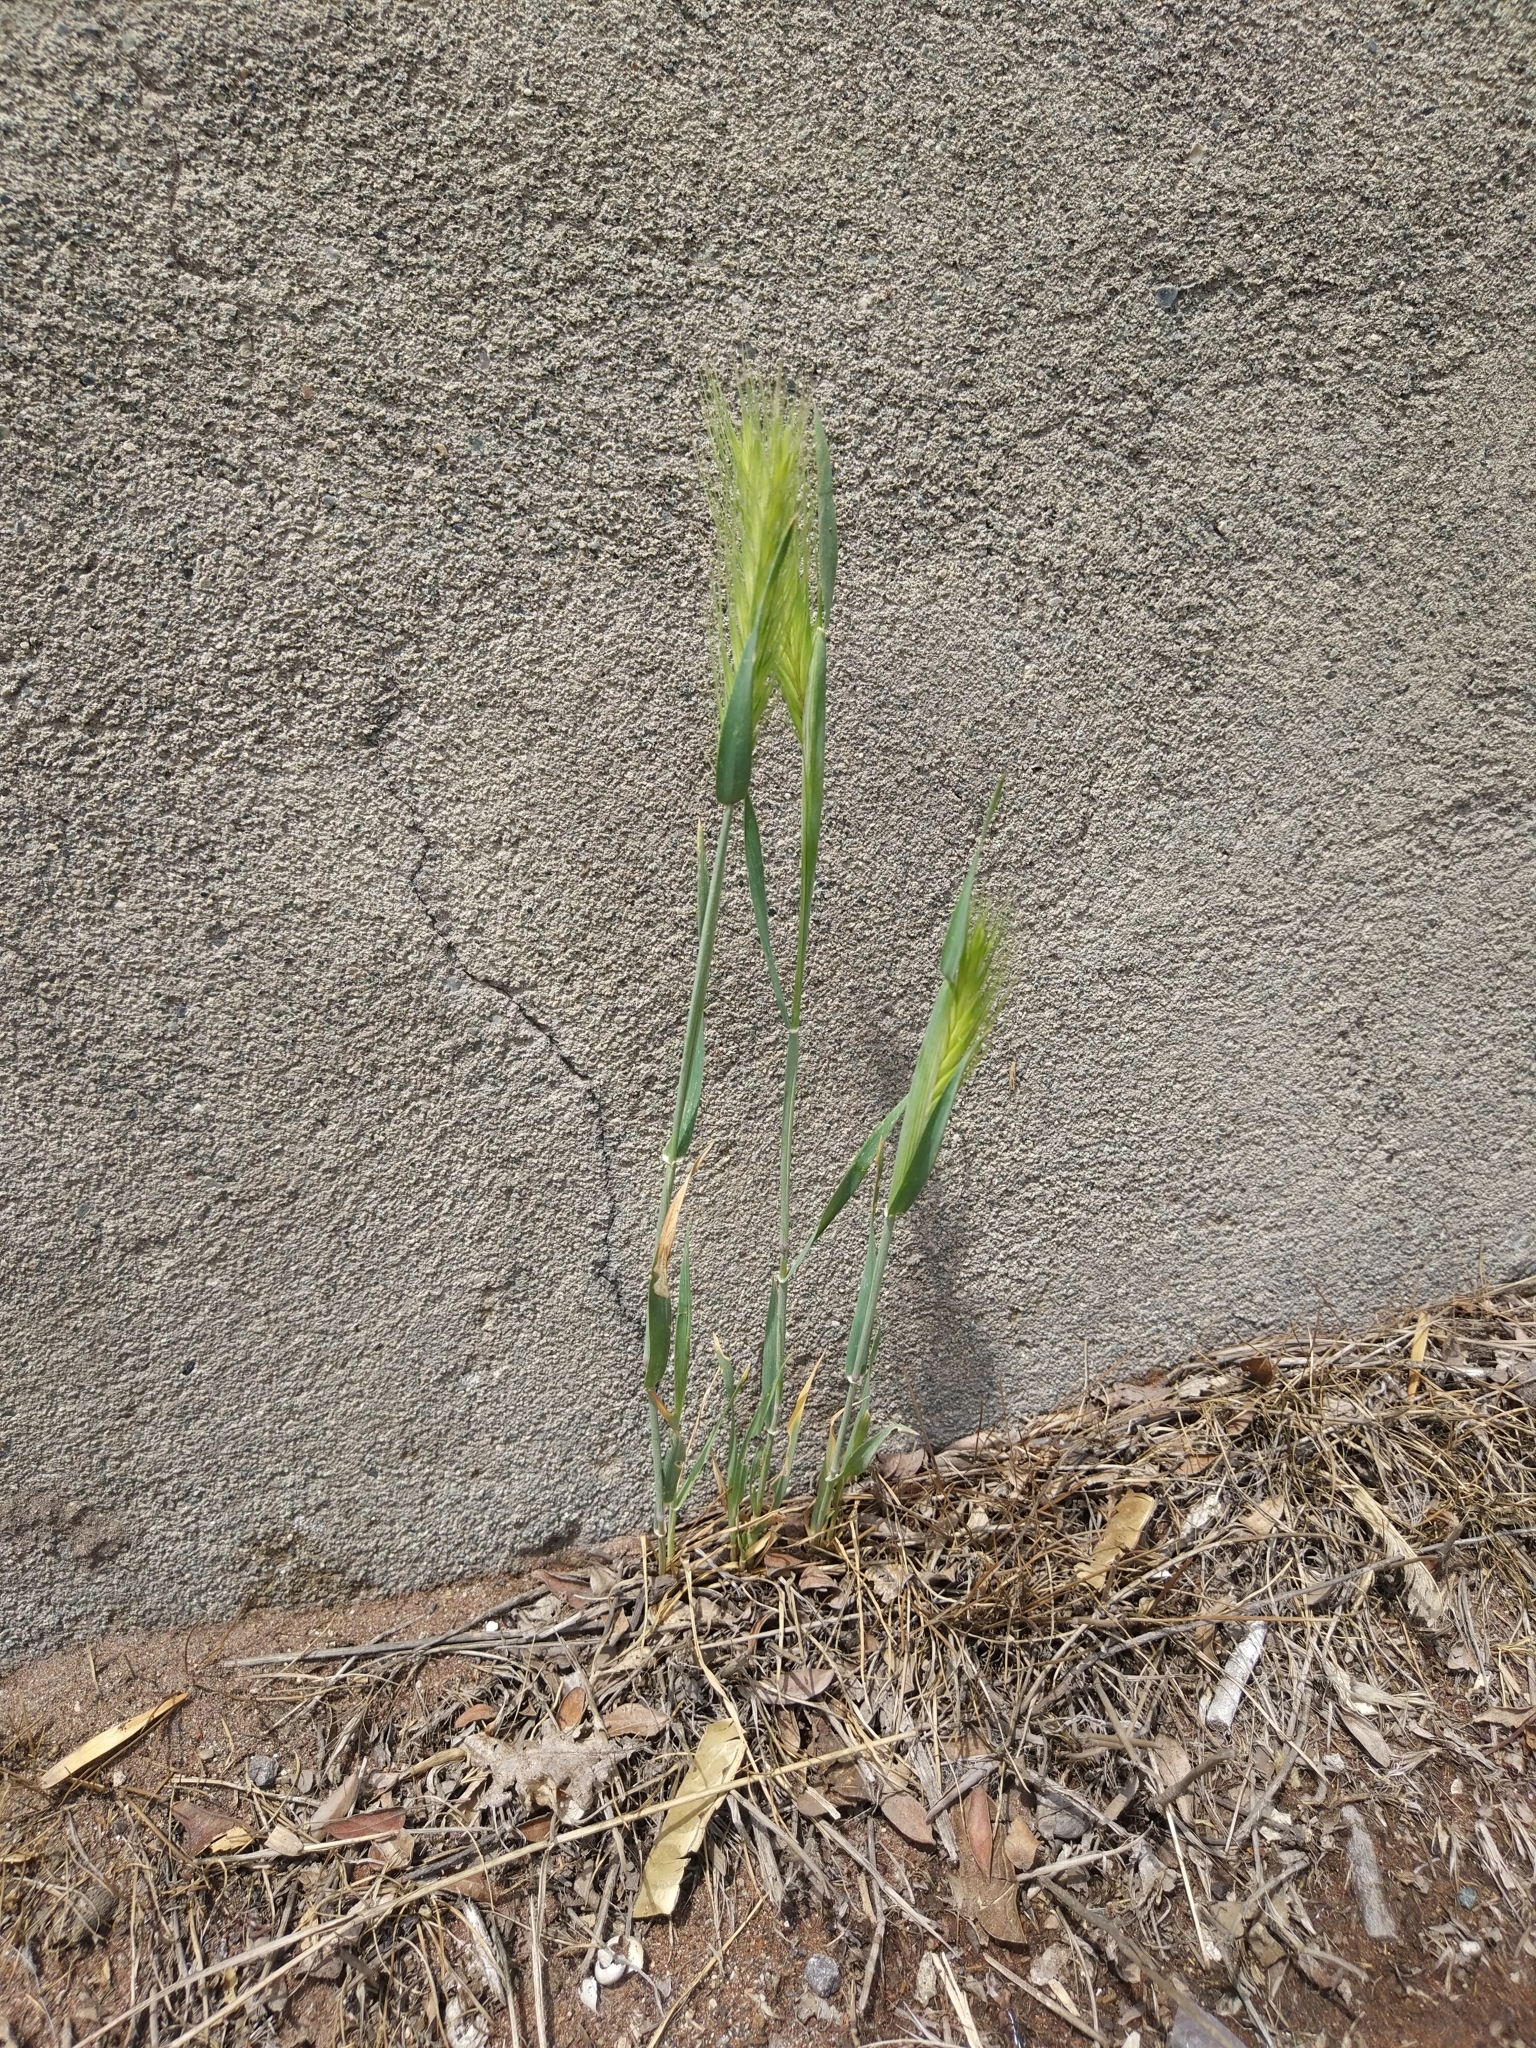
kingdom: Plantae
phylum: Tracheophyta
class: Liliopsida
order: Poales
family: Poaceae
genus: Hordeum
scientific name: Hordeum murinum
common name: Wall barley
